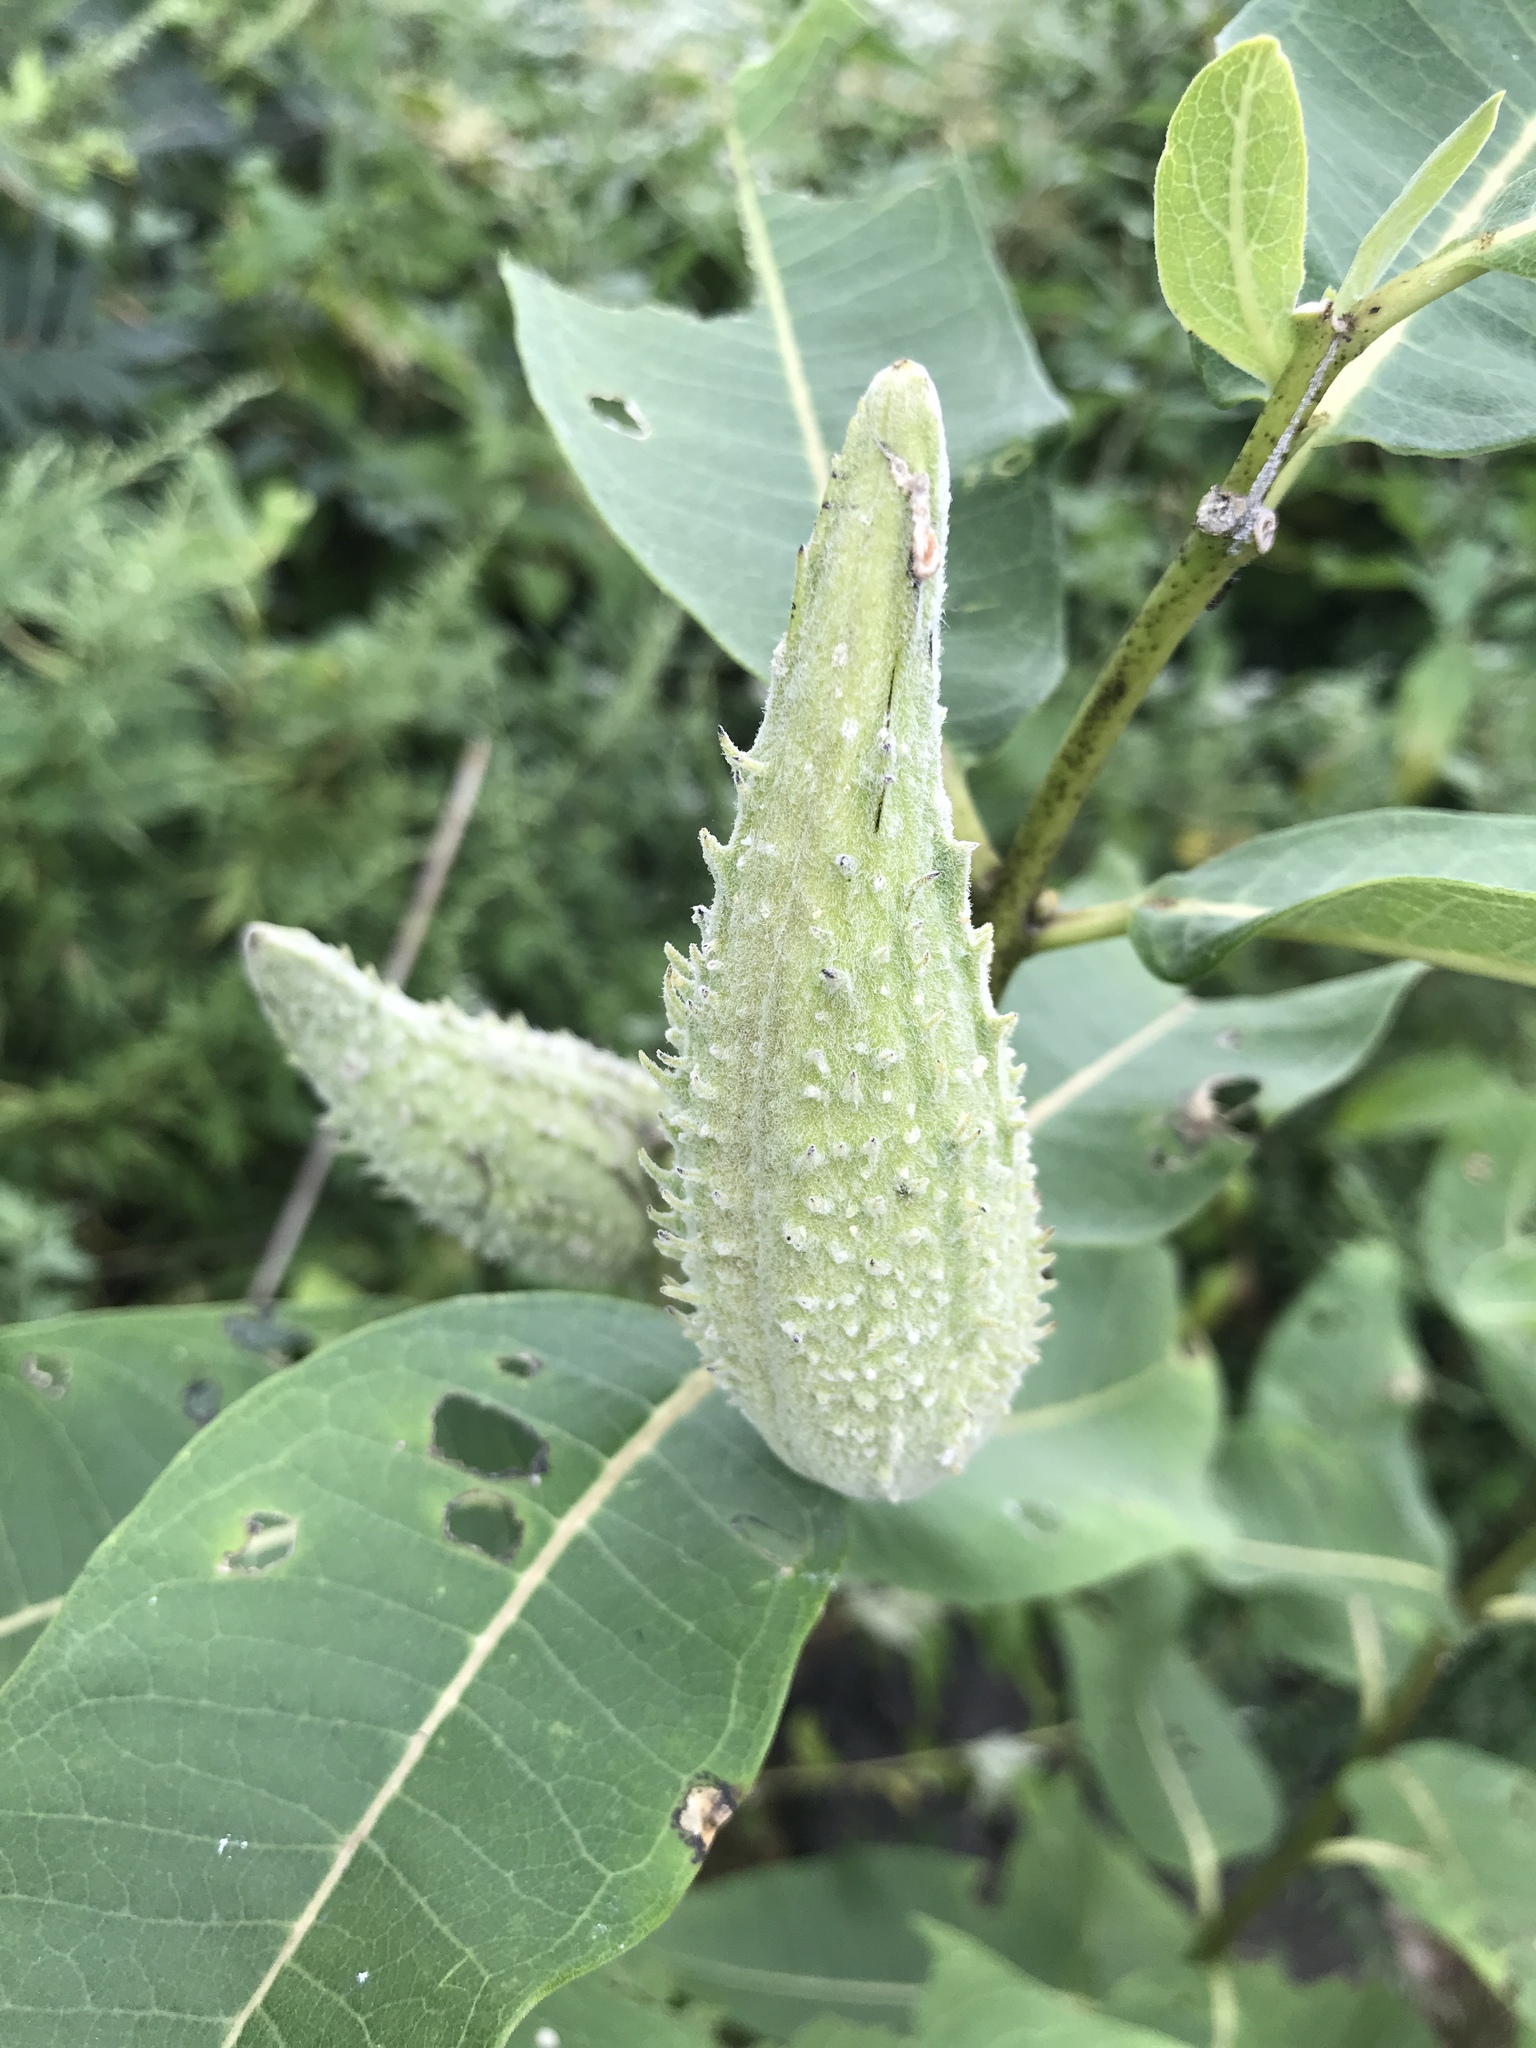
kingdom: Plantae
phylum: Tracheophyta
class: Magnoliopsida
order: Gentianales
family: Apocynaceae
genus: Asclepias
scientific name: Asclepias syriaca
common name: Common milkweed
